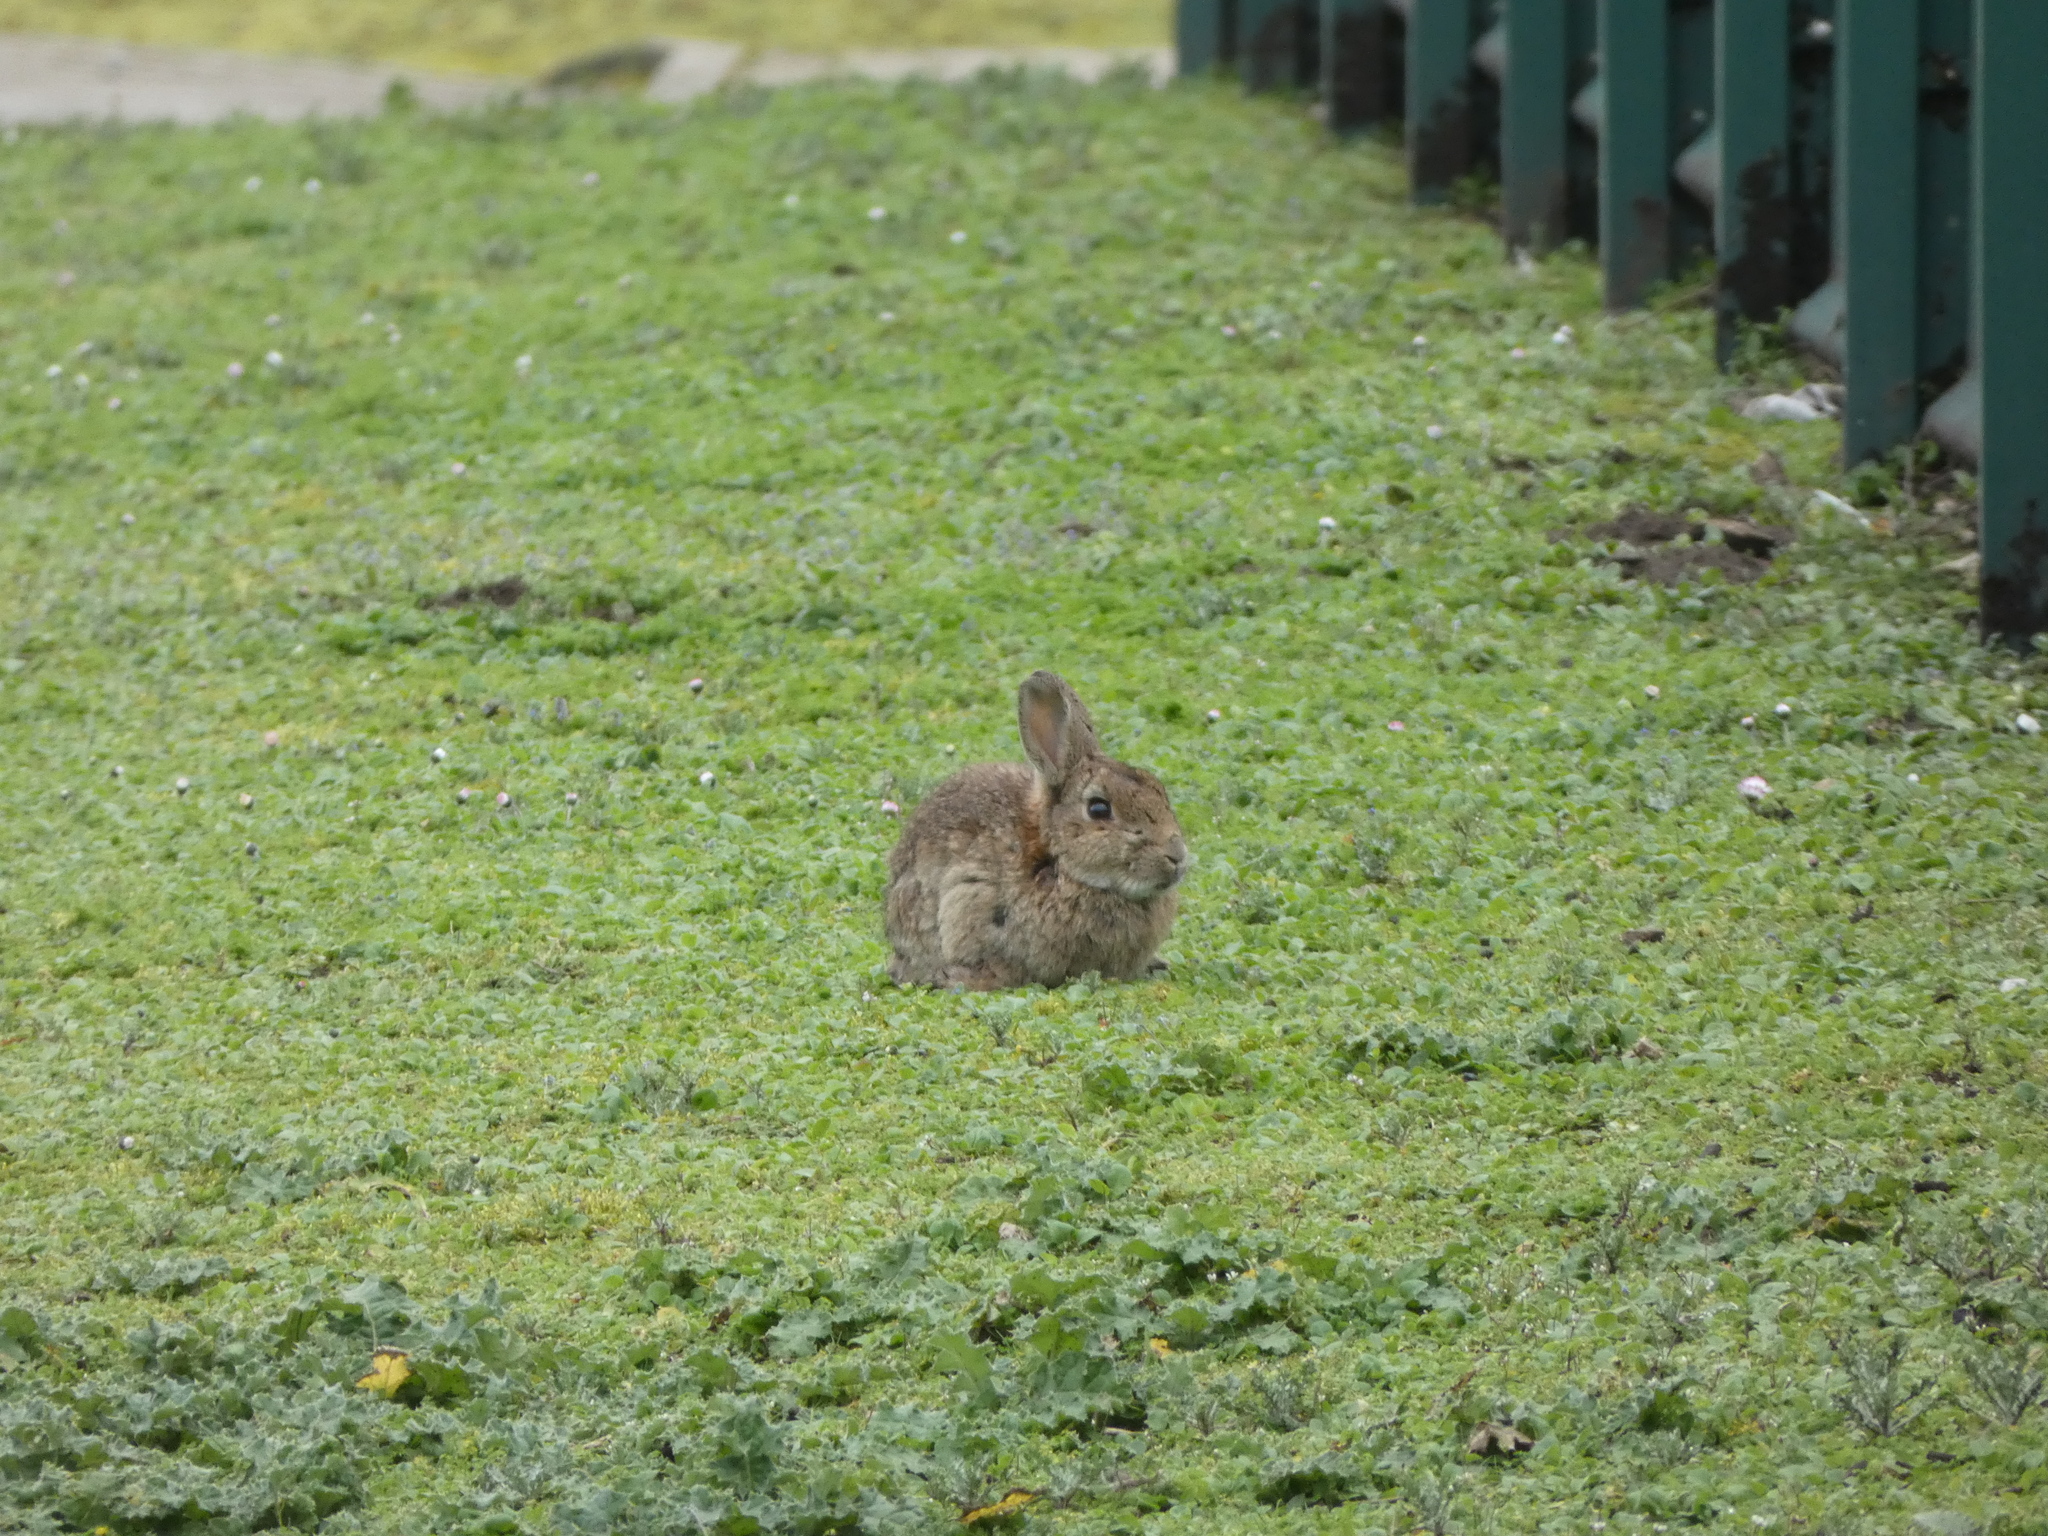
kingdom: Animalia
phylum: Chordata
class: Mammalia
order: Lagomorpha
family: Leporidae
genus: Oryctolagus
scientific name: Oryctolagus cuniculus
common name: European rabbit
